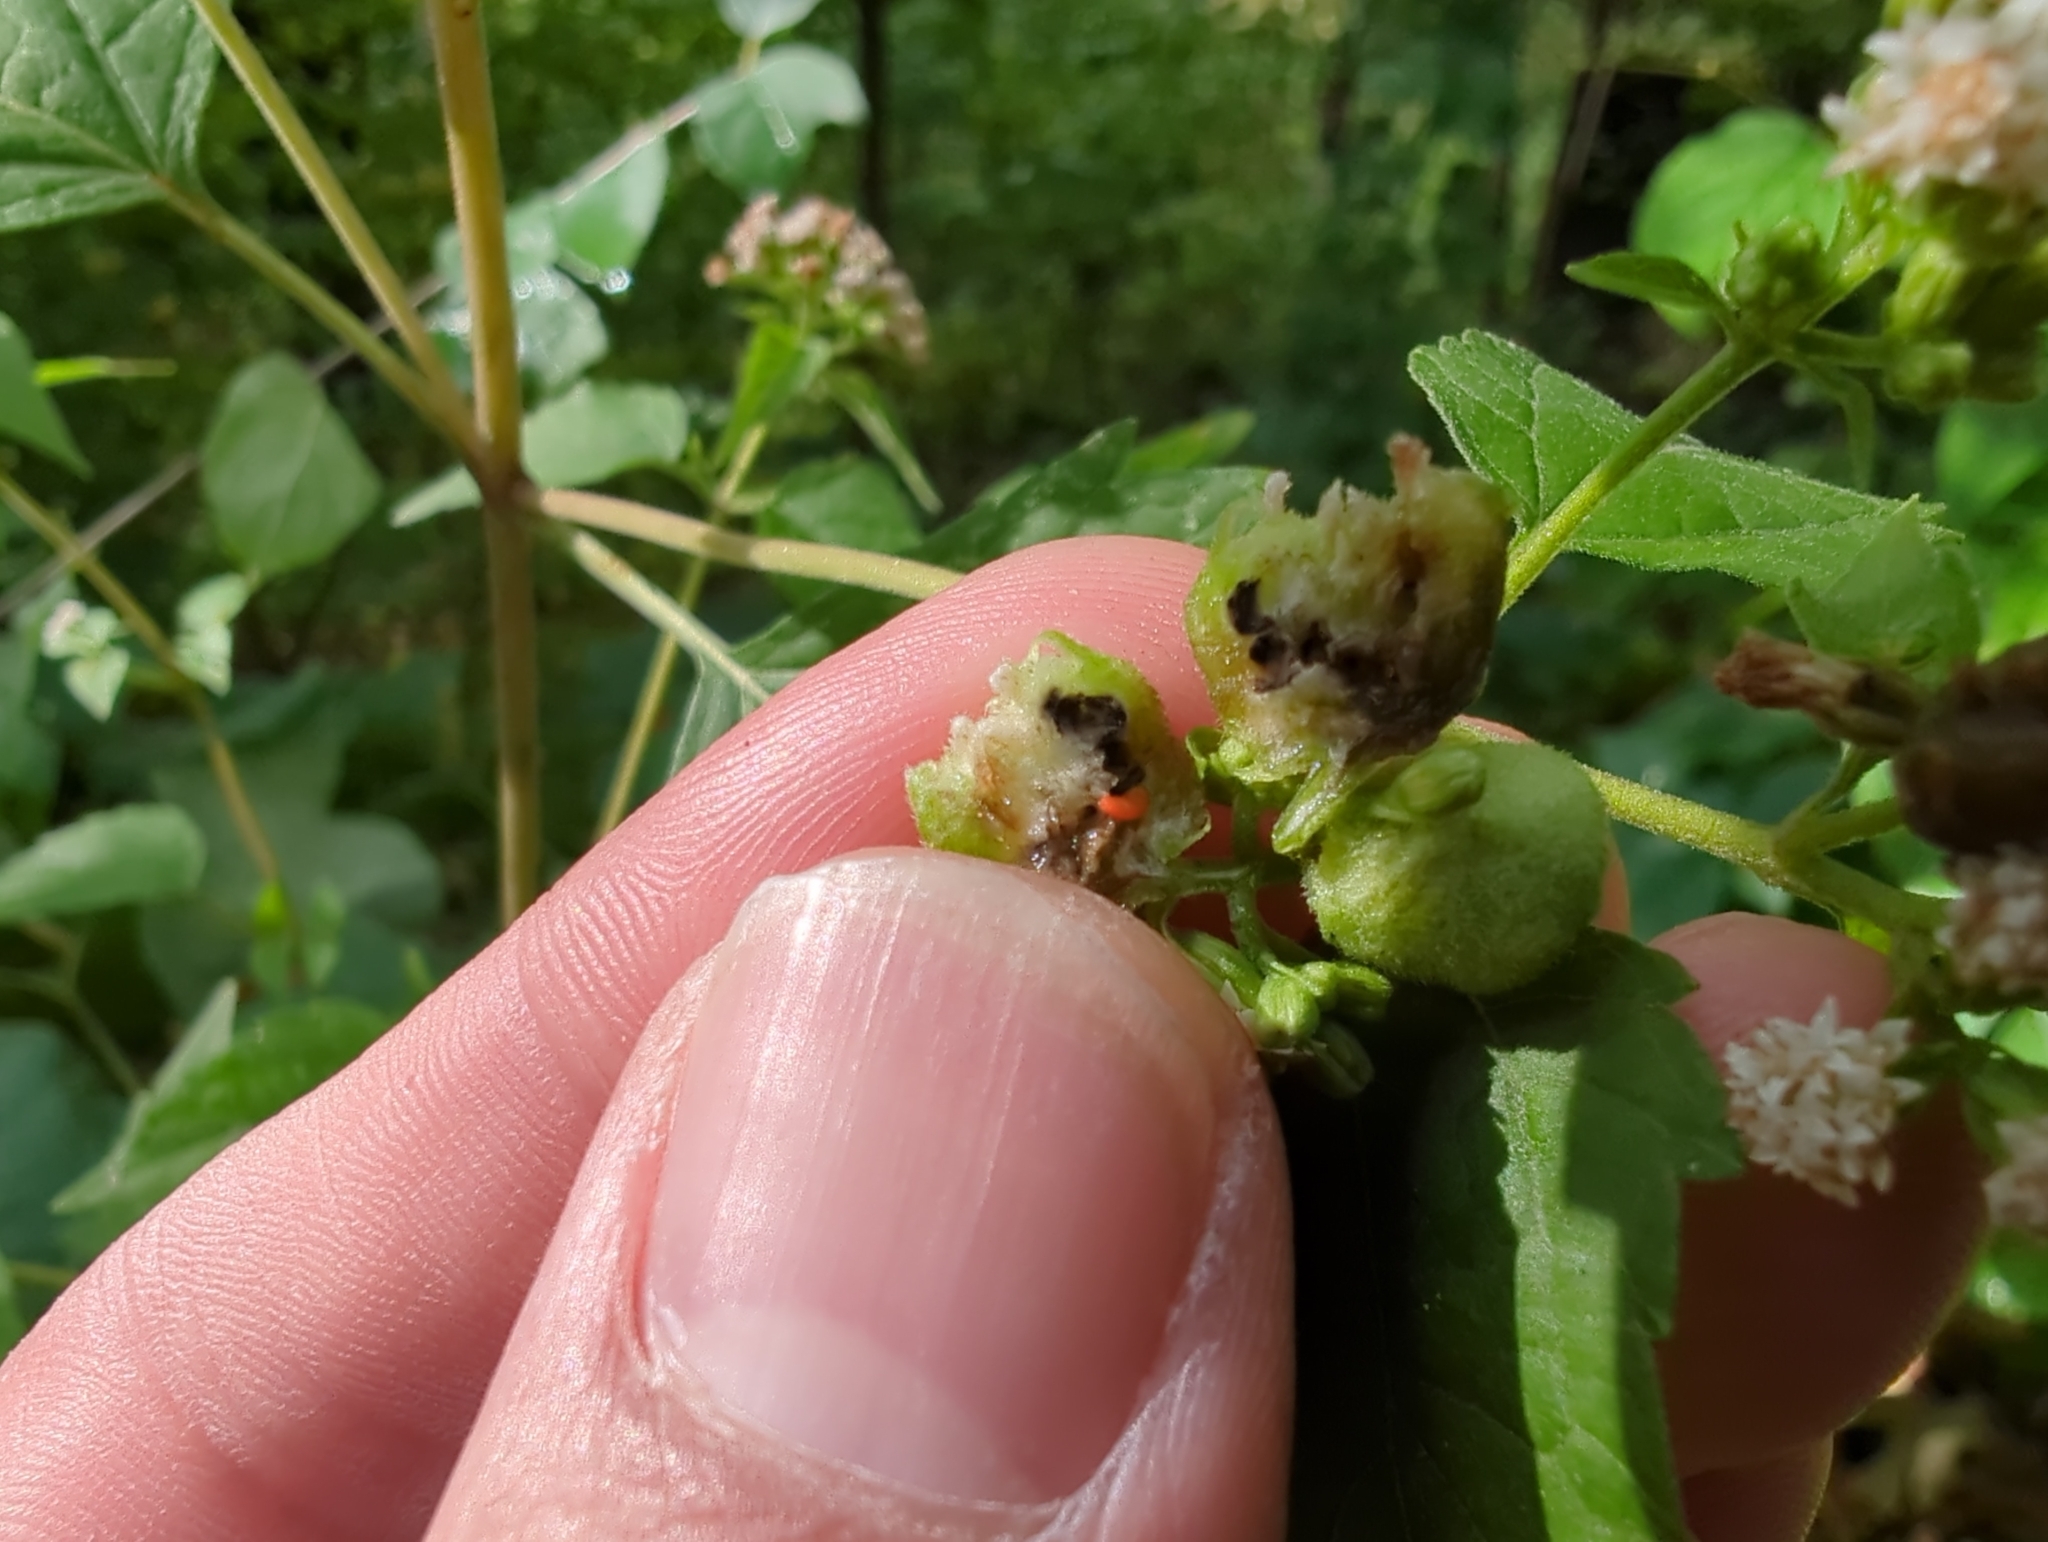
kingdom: Animalia
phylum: Arthropoda
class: Insecta
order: Diptera
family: Cecidomyiidae
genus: Schizomyia
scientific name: Schizomyia eupatoriflorae
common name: Boneset flower gall midge
